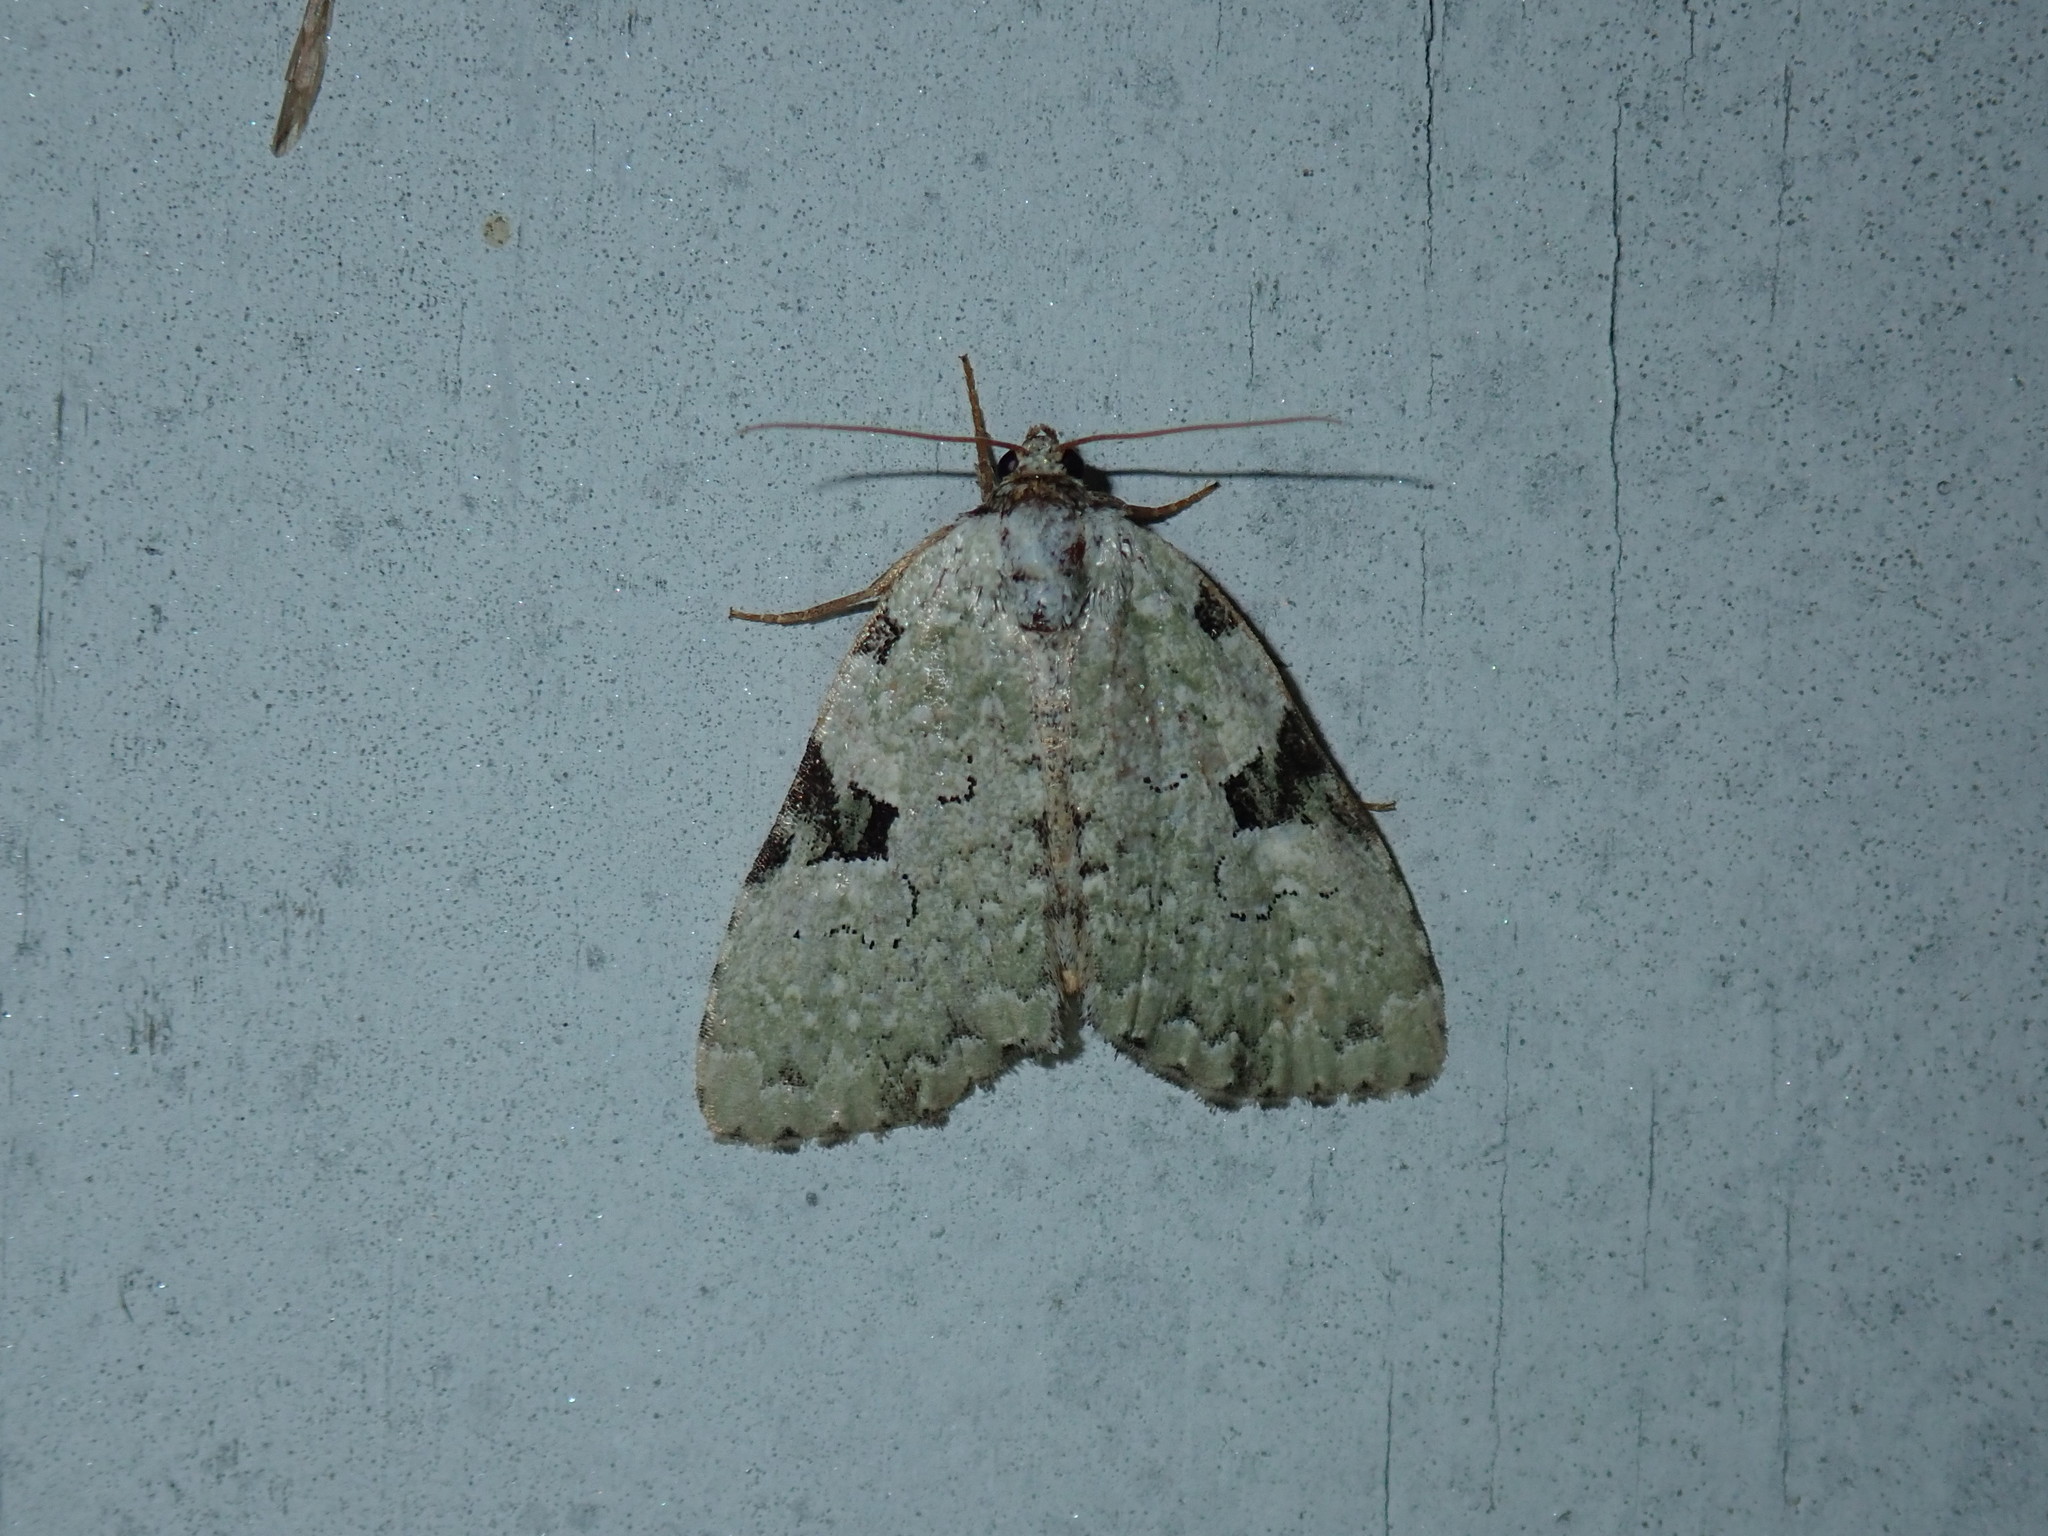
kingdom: Animalia
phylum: Arthropoda
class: Insecta
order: Lepidoptera
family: Noctuidae
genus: Leuconycta
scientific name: Leuconycta diphteroides
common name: Green leuconycta moth
